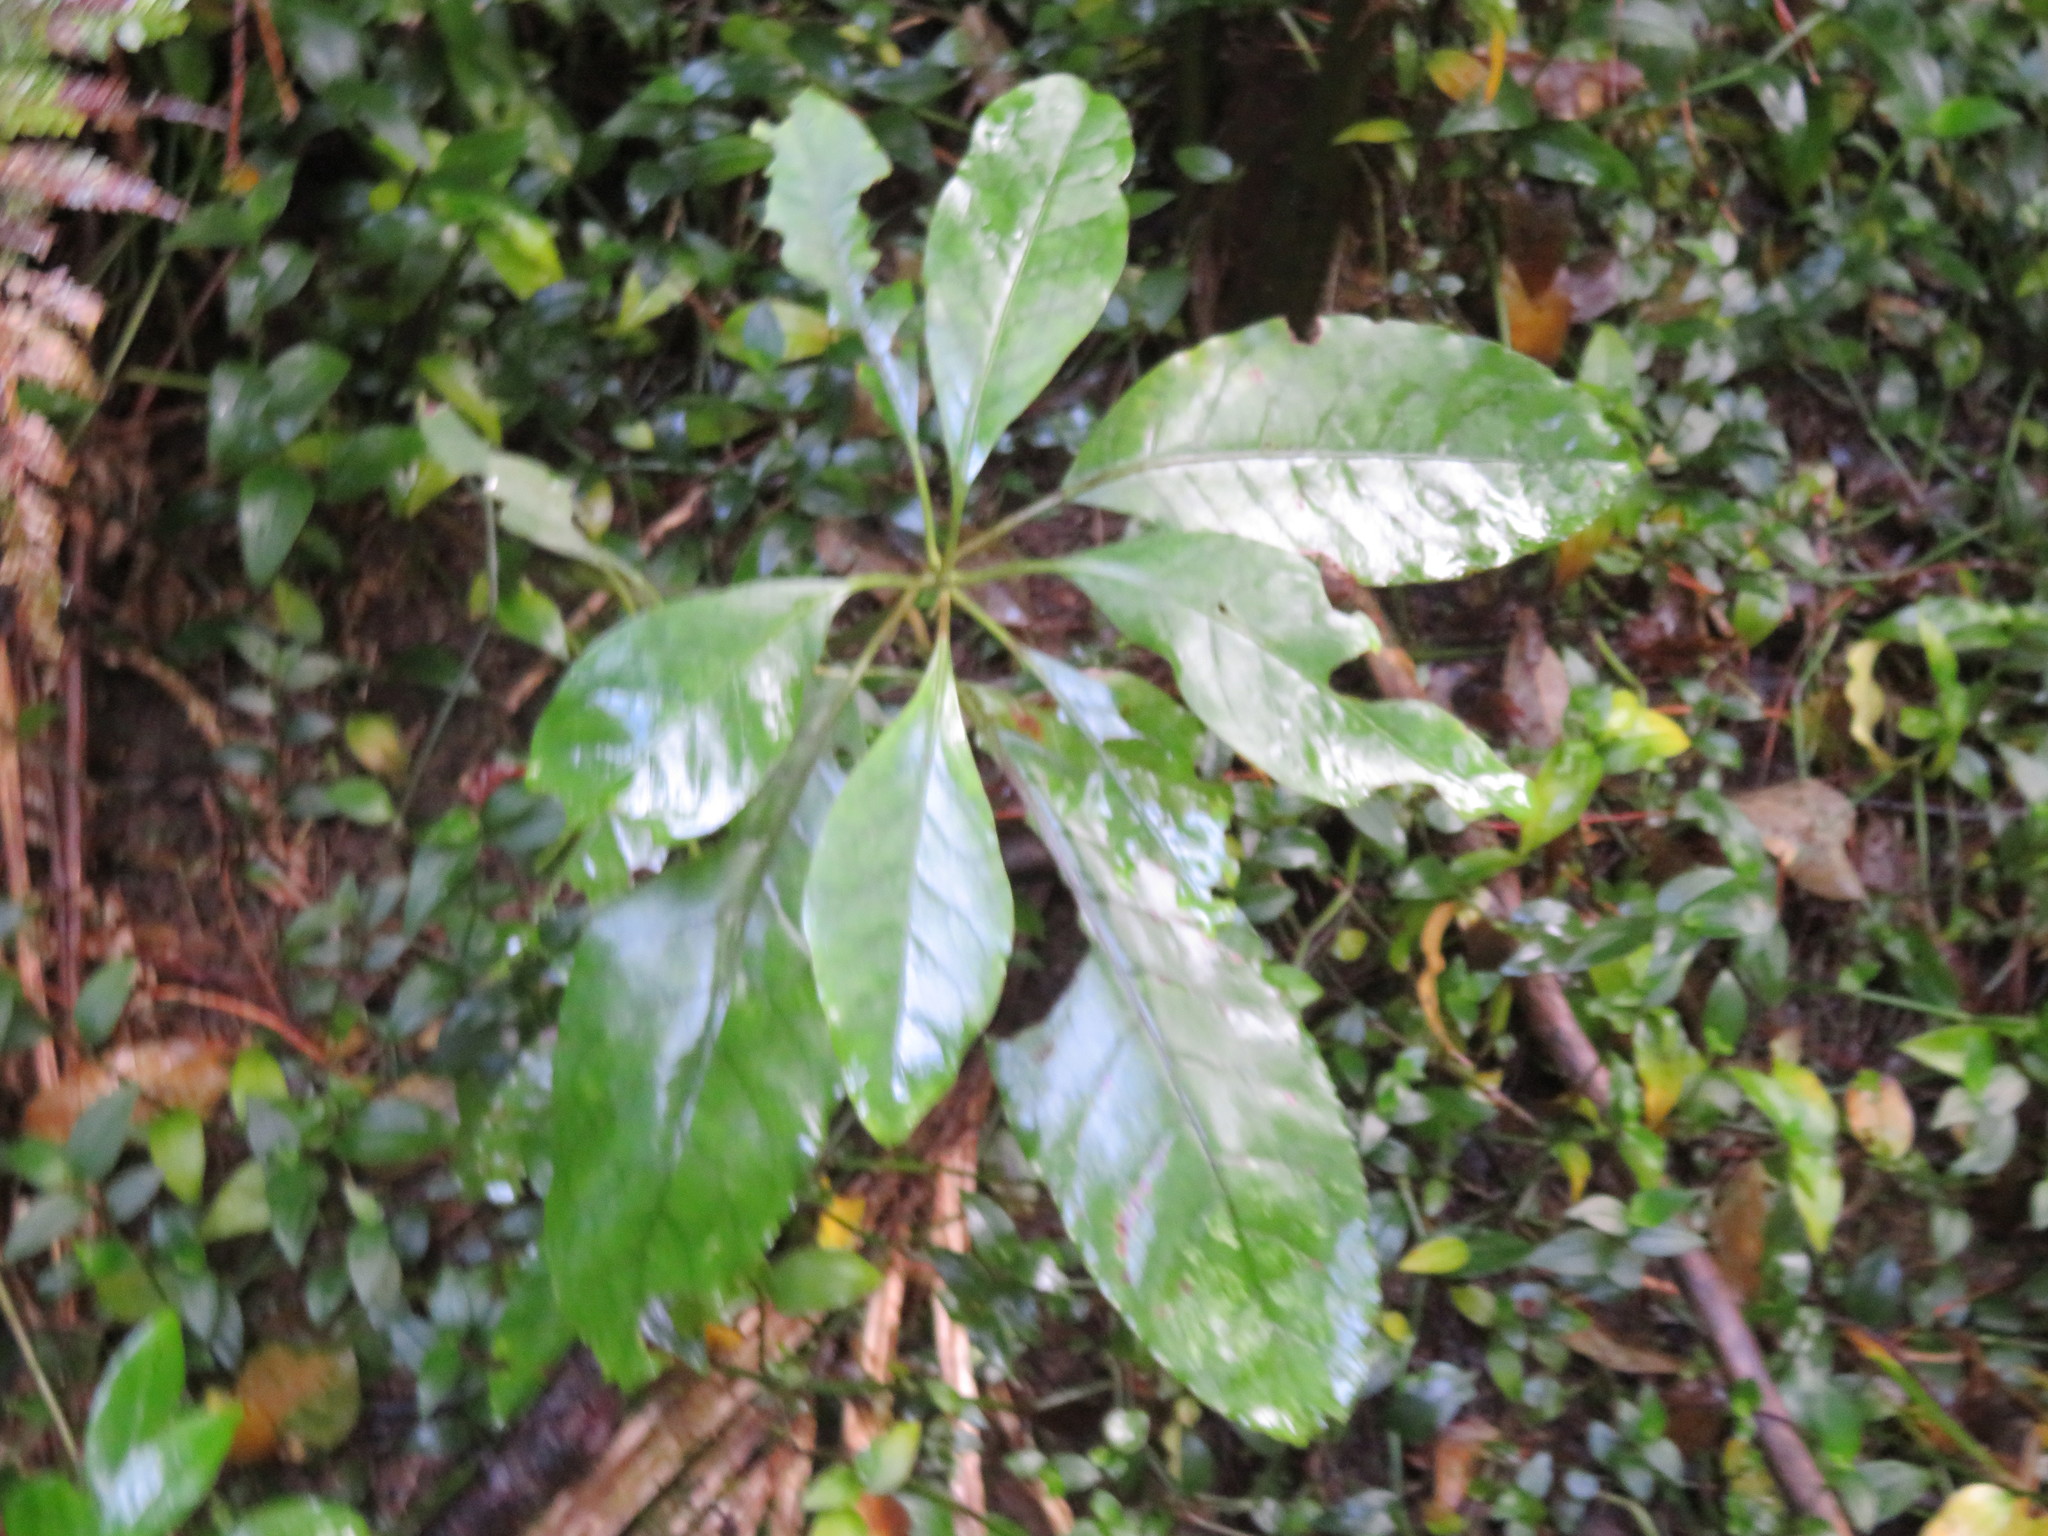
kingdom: Plantae
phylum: Tracheophyta
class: Magnoliopsida
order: Gentianales
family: Rubiaceae
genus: Coprosma
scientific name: Coprosma autumnalis
